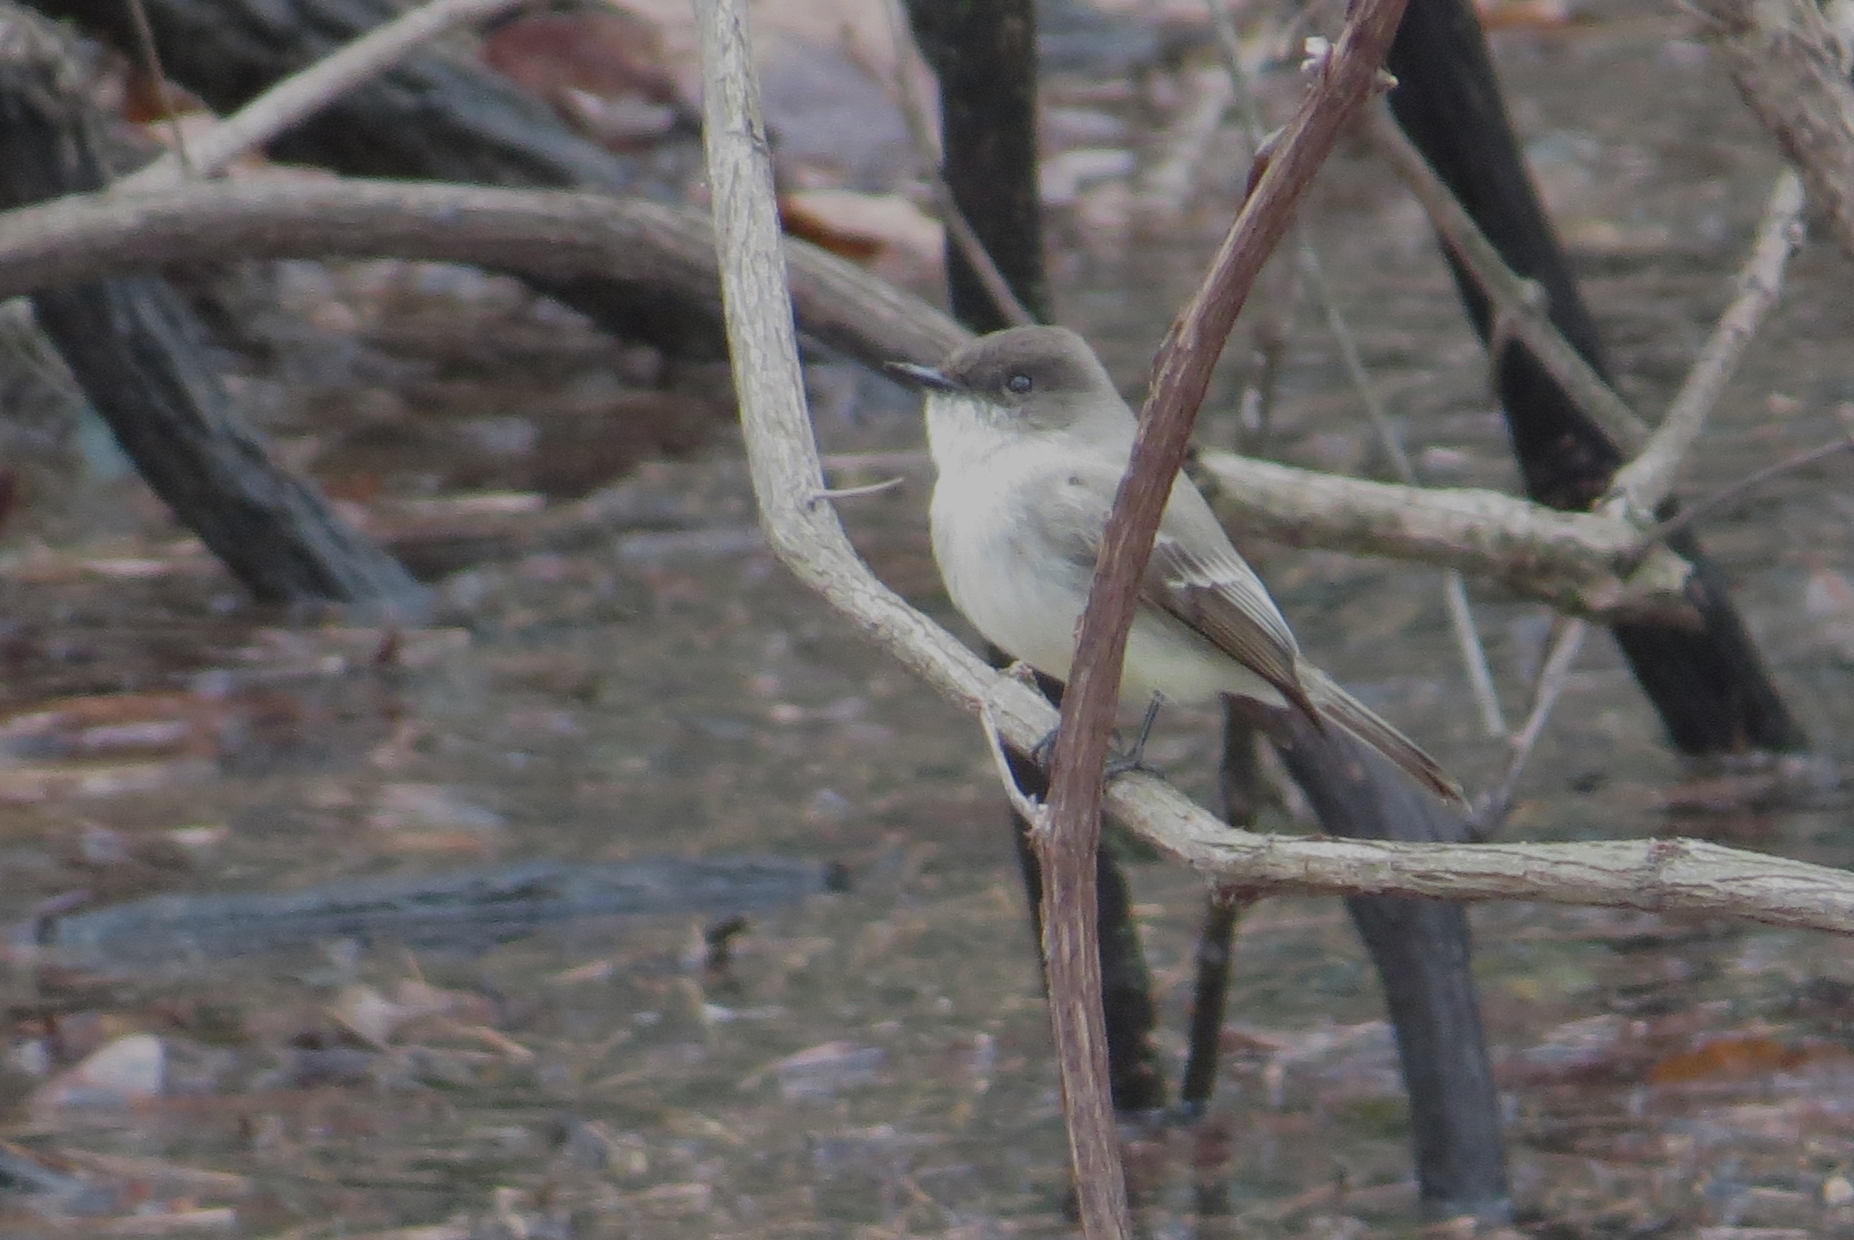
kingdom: Animalia
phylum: Chordata
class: Aves
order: Passeriformes
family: Tyrannidae
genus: Sayornis
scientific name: Sayornis phoebe
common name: Eastern phoebe
